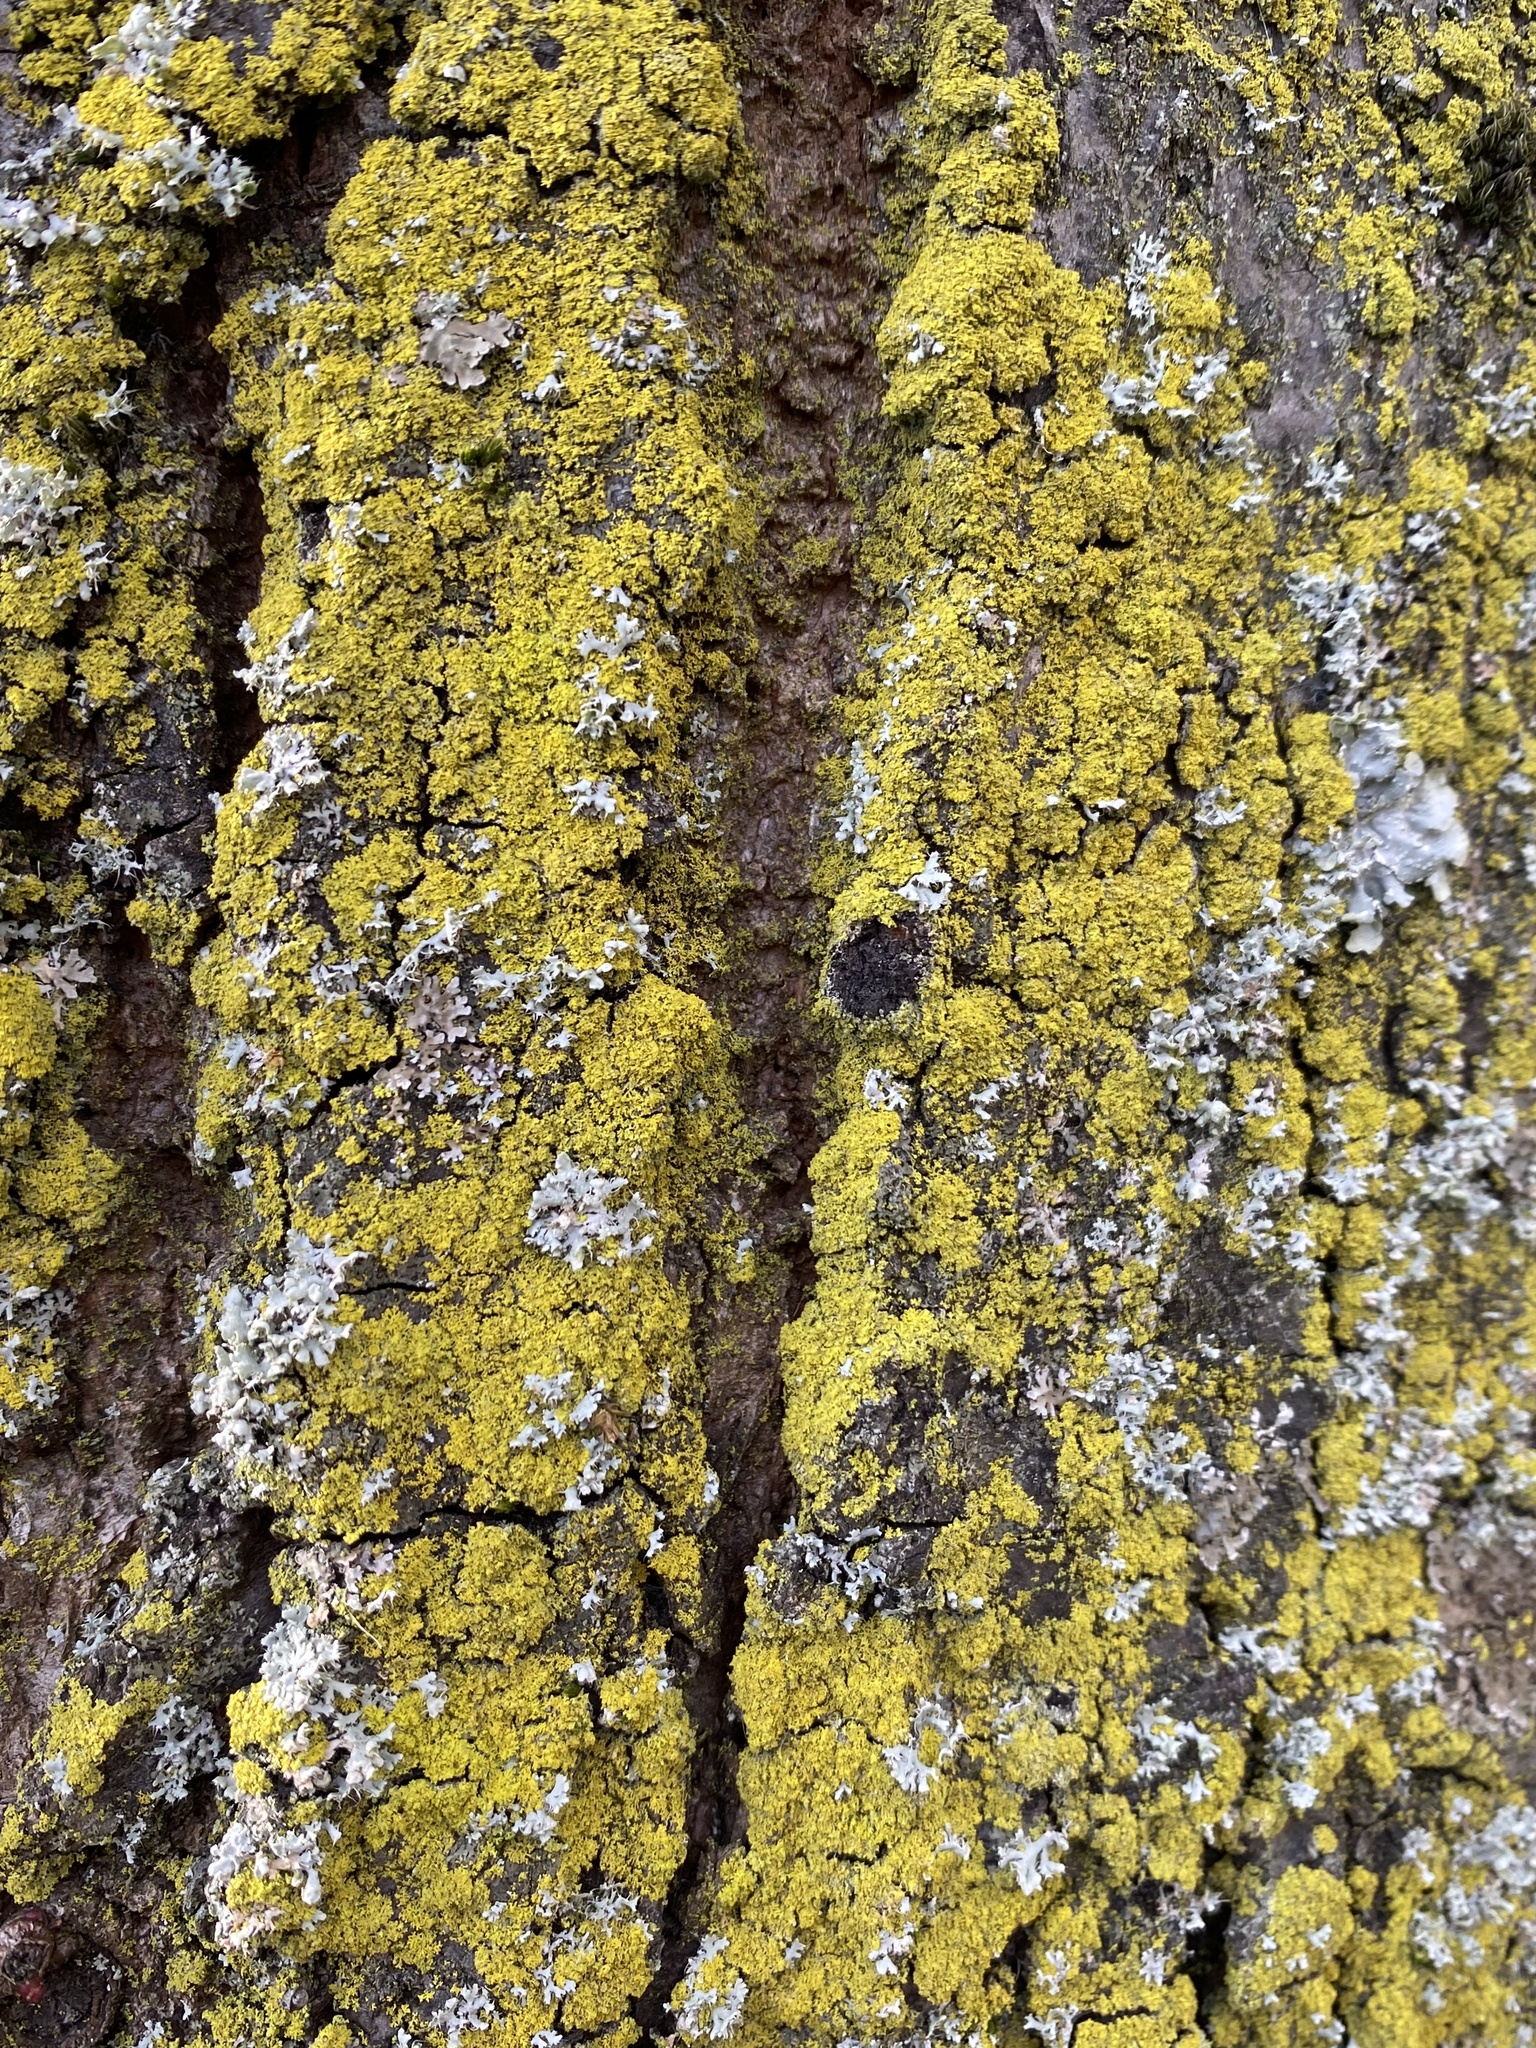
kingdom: Fungi
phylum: Ascomycota
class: Candelariomycetes
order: Candelariales
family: Candelariaceae
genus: Candelaria
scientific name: Candelaria concolor
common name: Candleflame lichen
